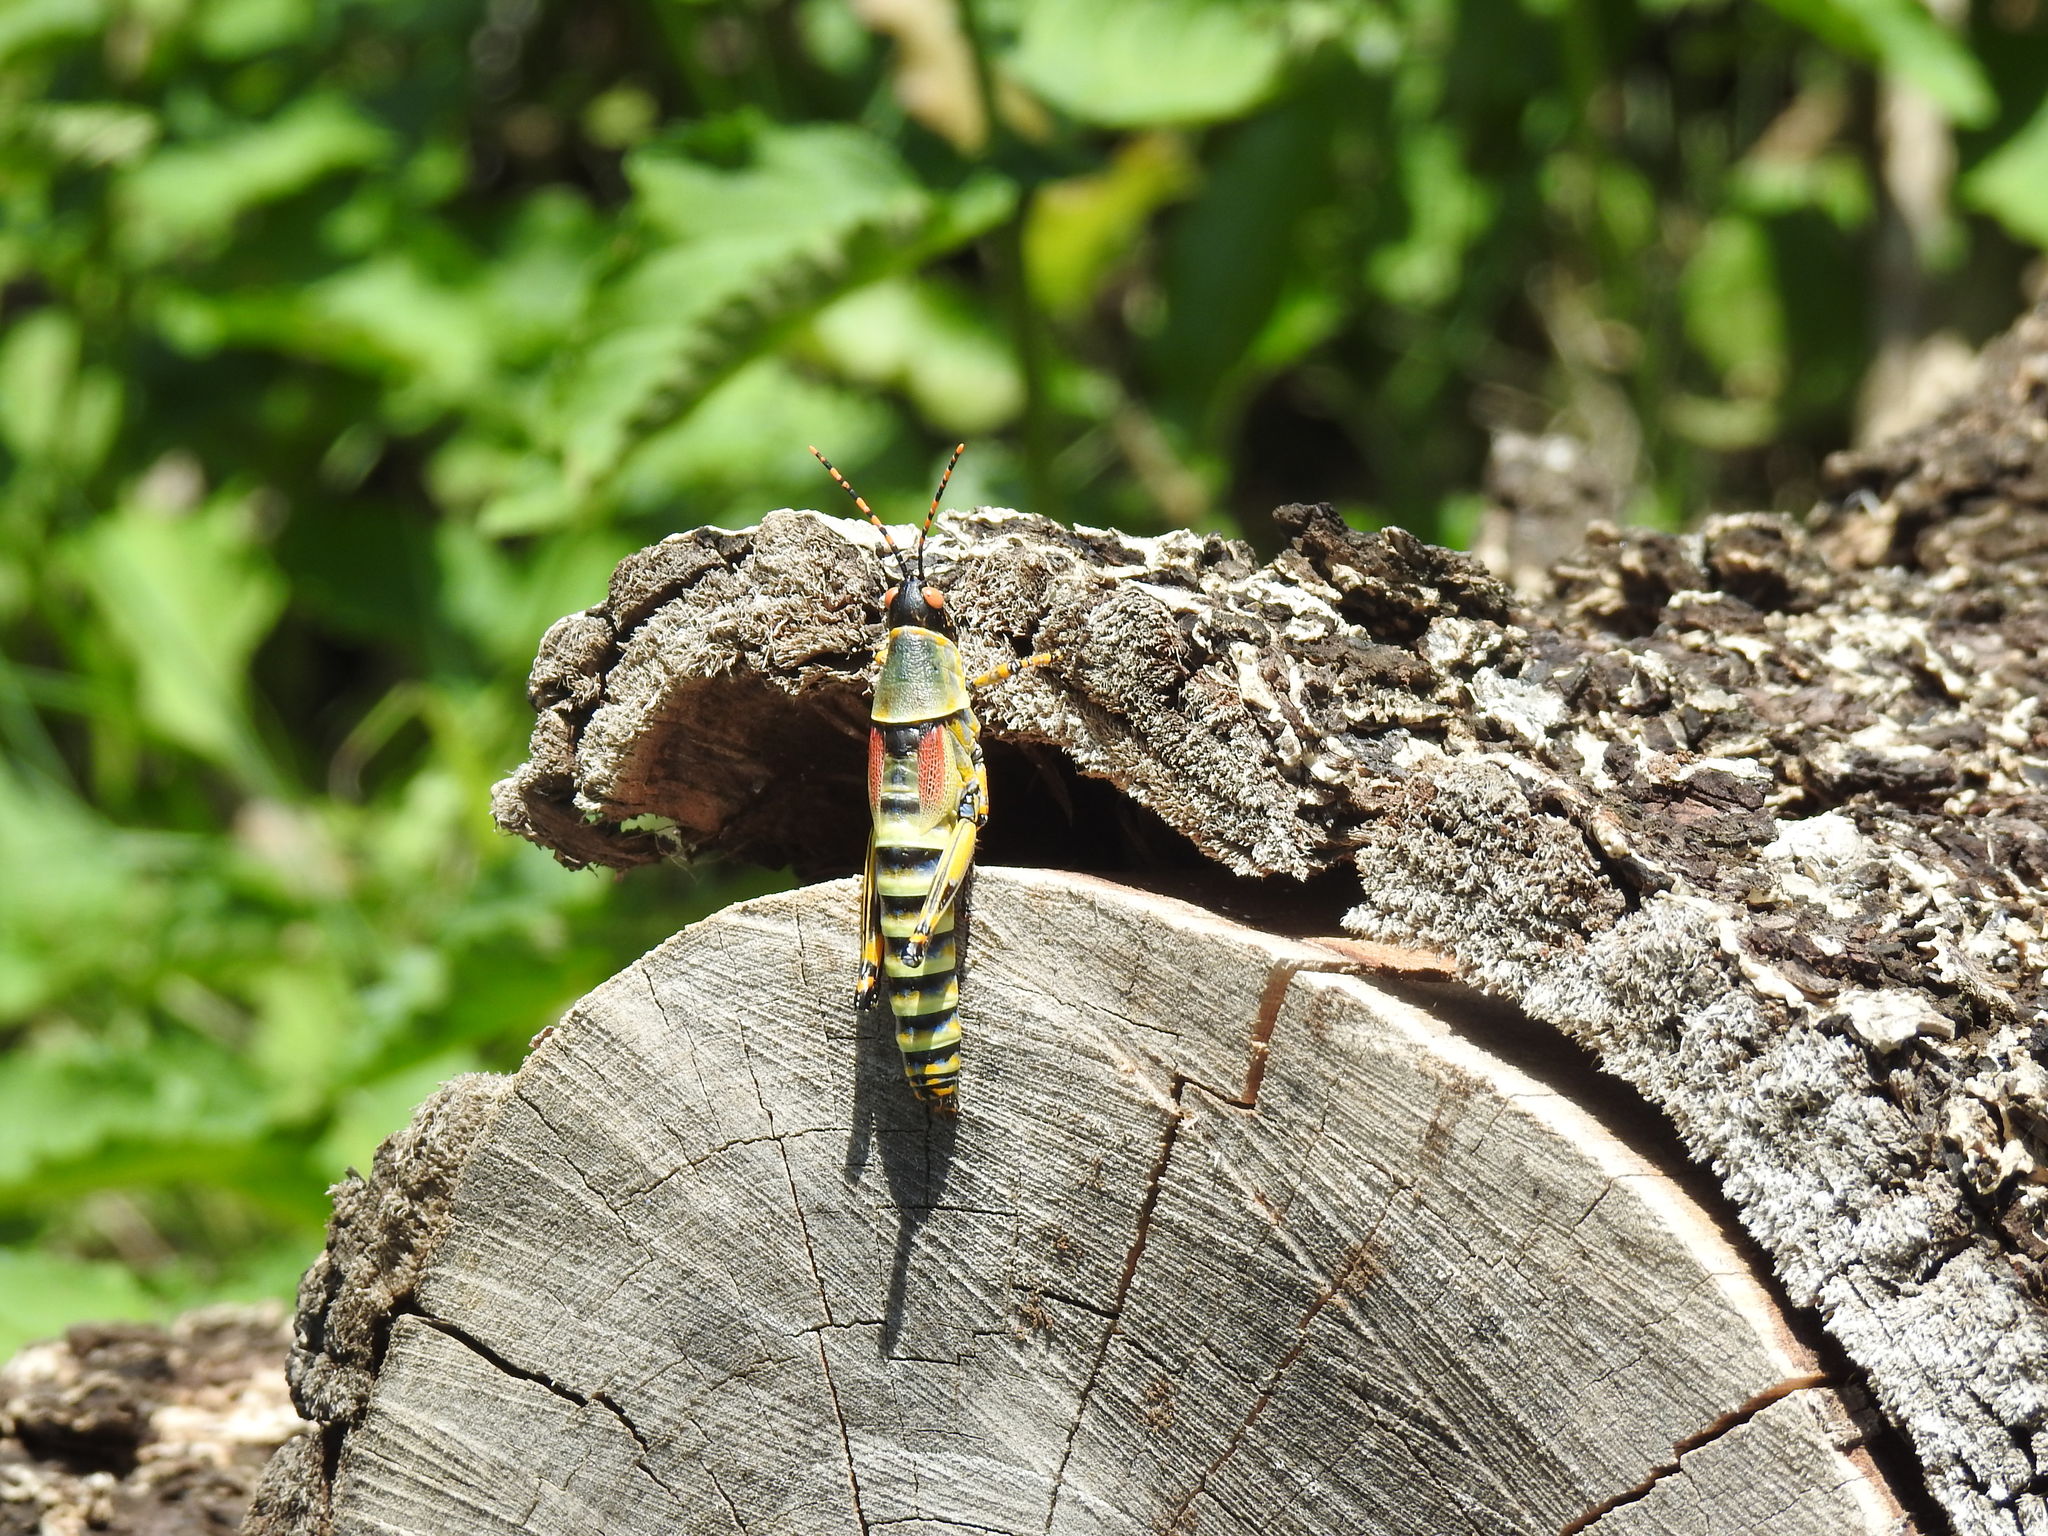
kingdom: Animalia
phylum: Arthropoda
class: Insecta
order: Orthoptera
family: Pyrgomorphidae
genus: Zonocerus
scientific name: Zonocerus elegans
